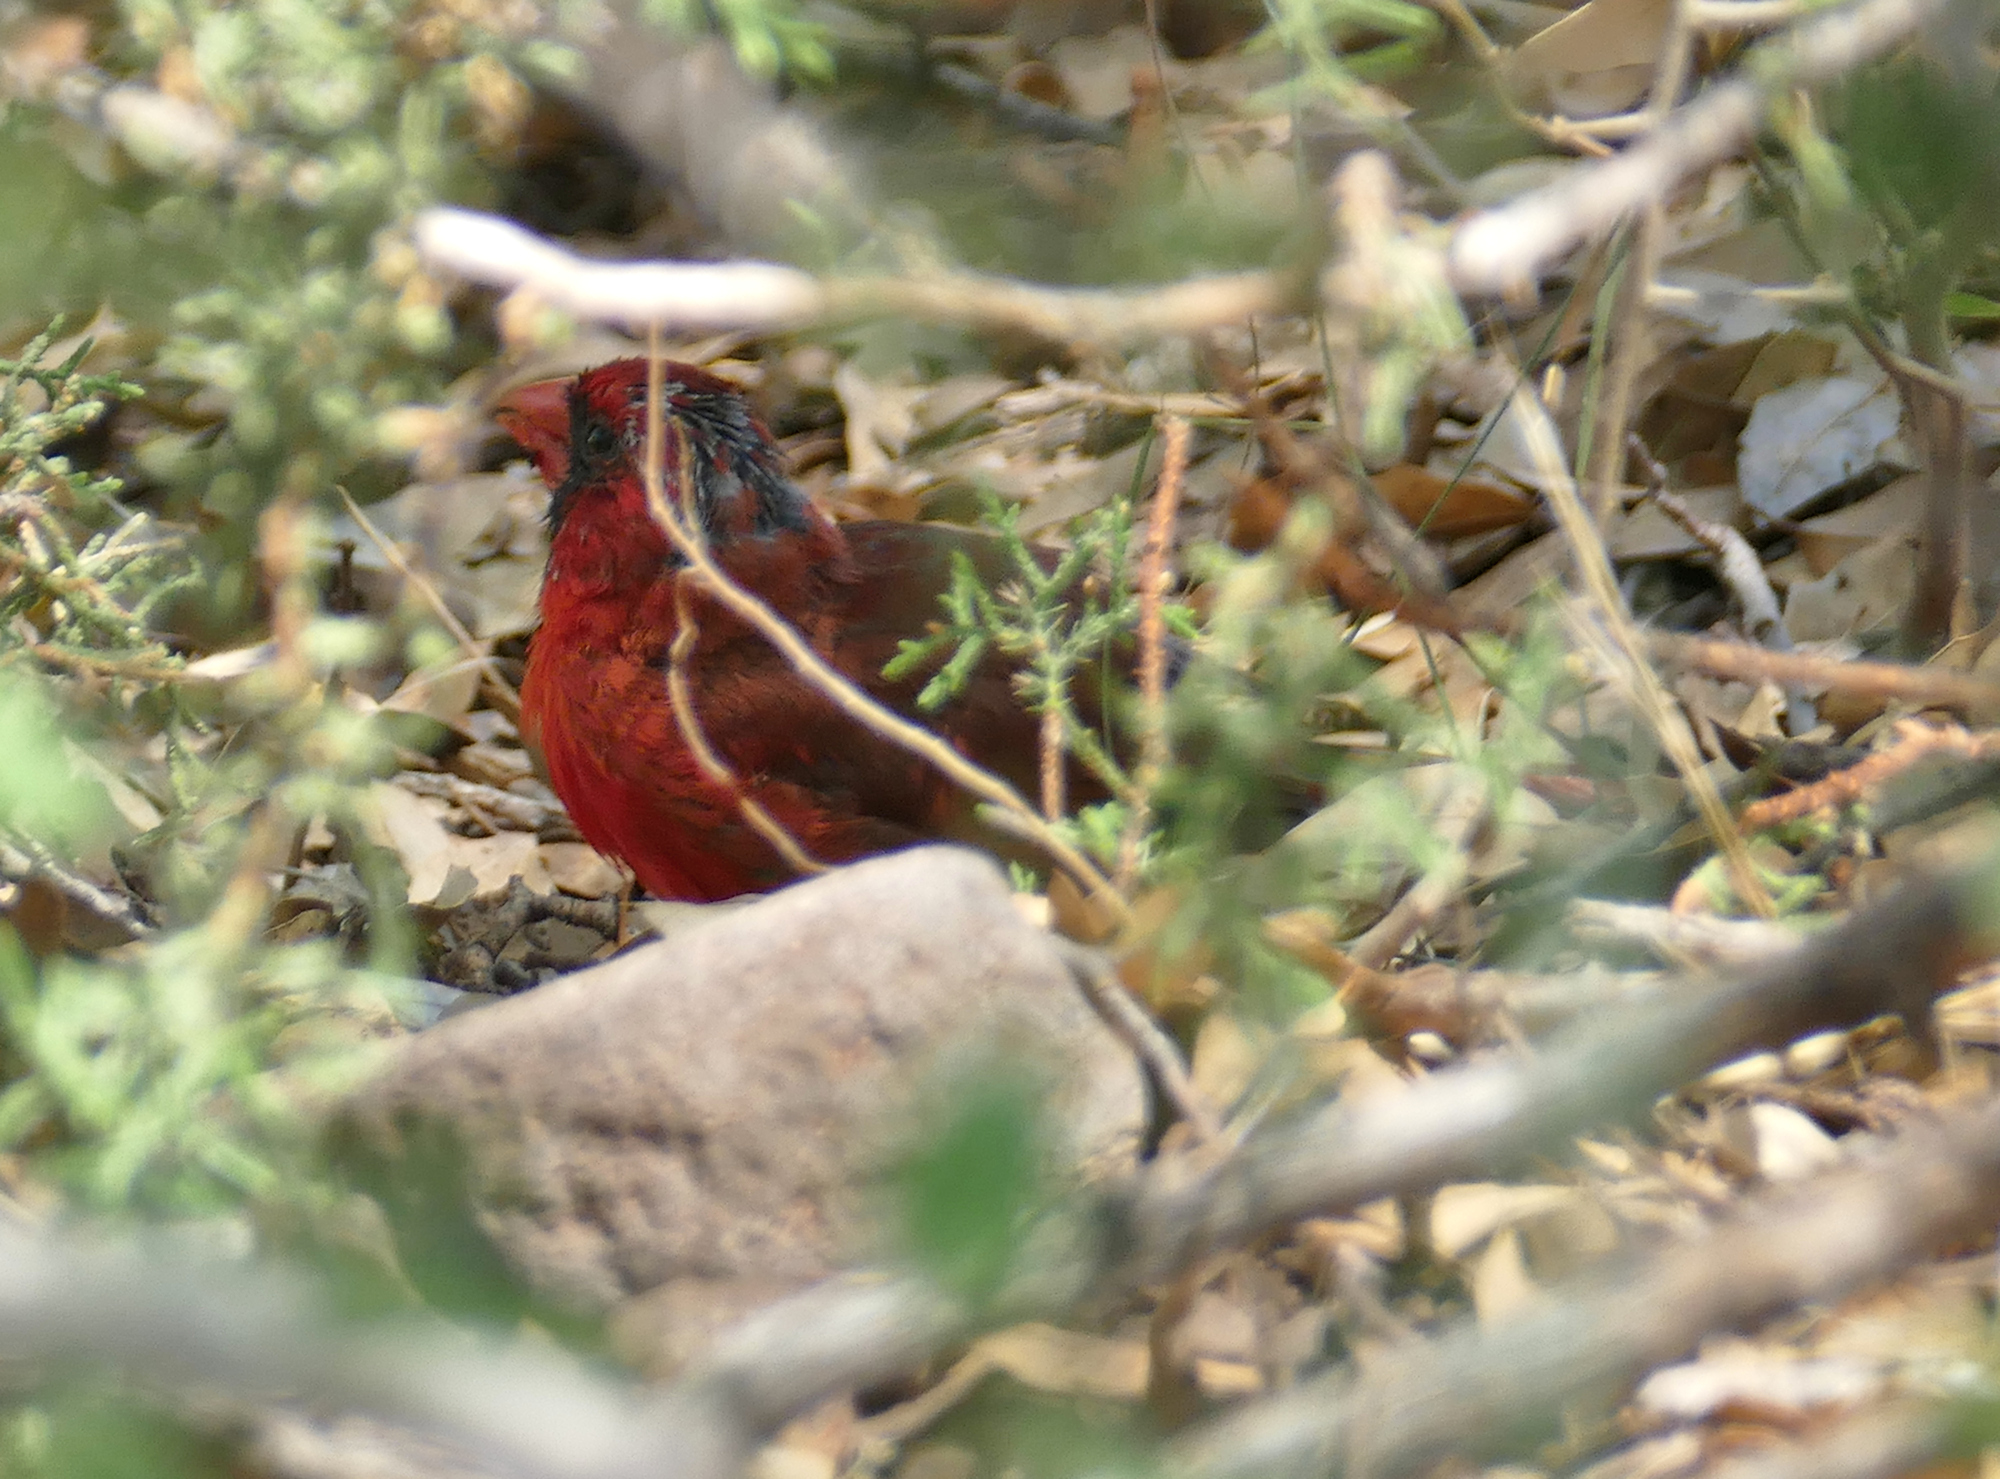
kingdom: Animalia
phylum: Chordata
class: Aves
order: Passeriformes
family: Cardinalidae
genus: Cardinalis
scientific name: Cardinalis cardinalis
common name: Northern cardinal
